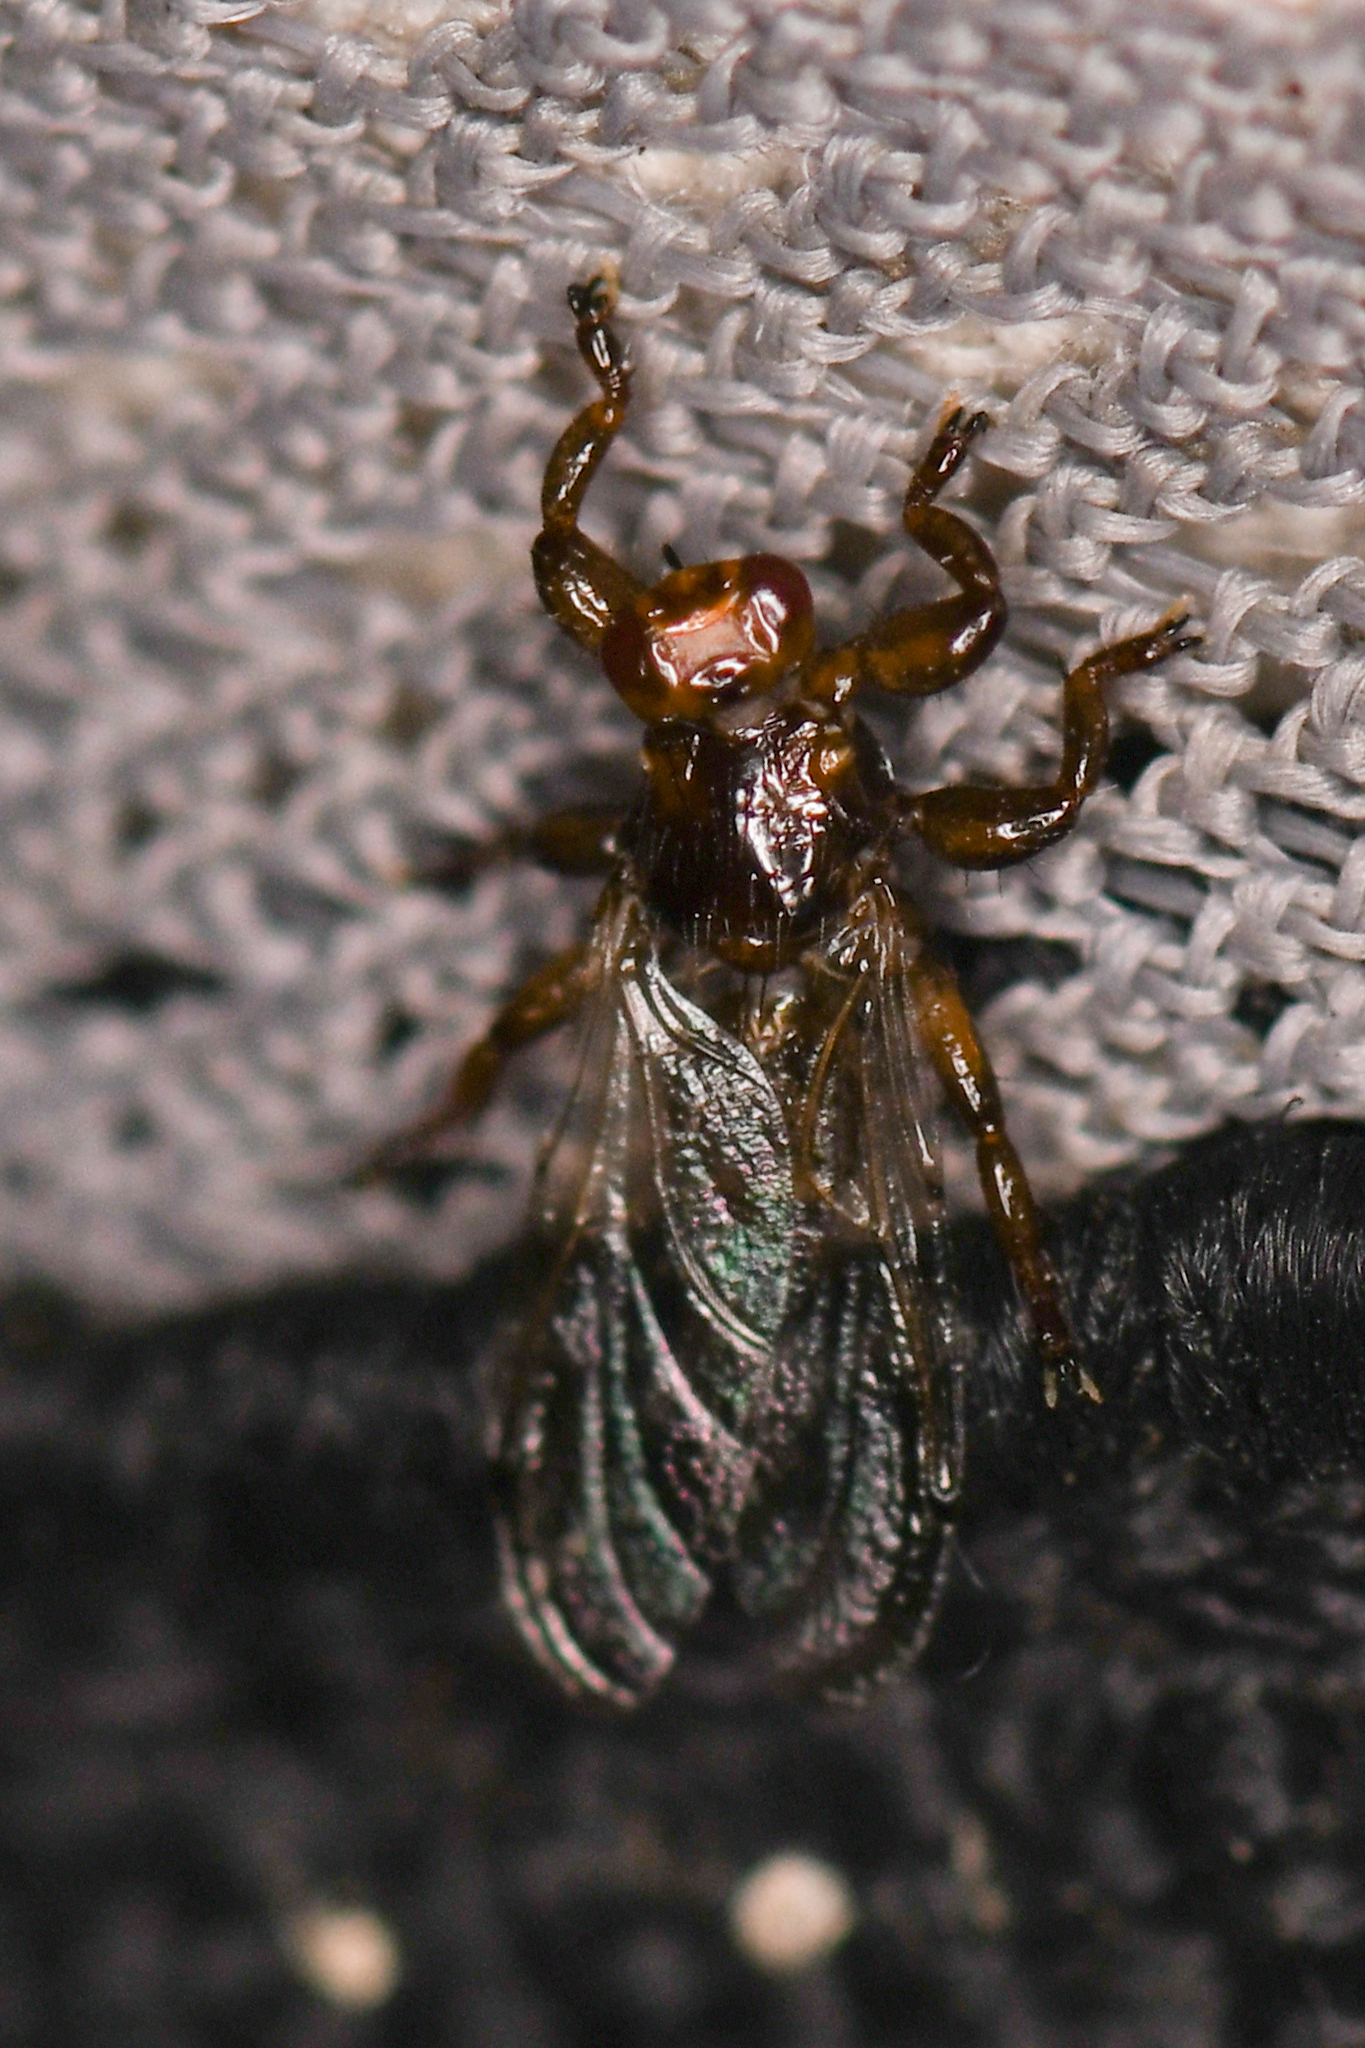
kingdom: Animalia
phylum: Arthropoda
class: Insecta
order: Diptera
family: Hippoboscidae
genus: Lipoptena
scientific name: Lipoptena depressa
